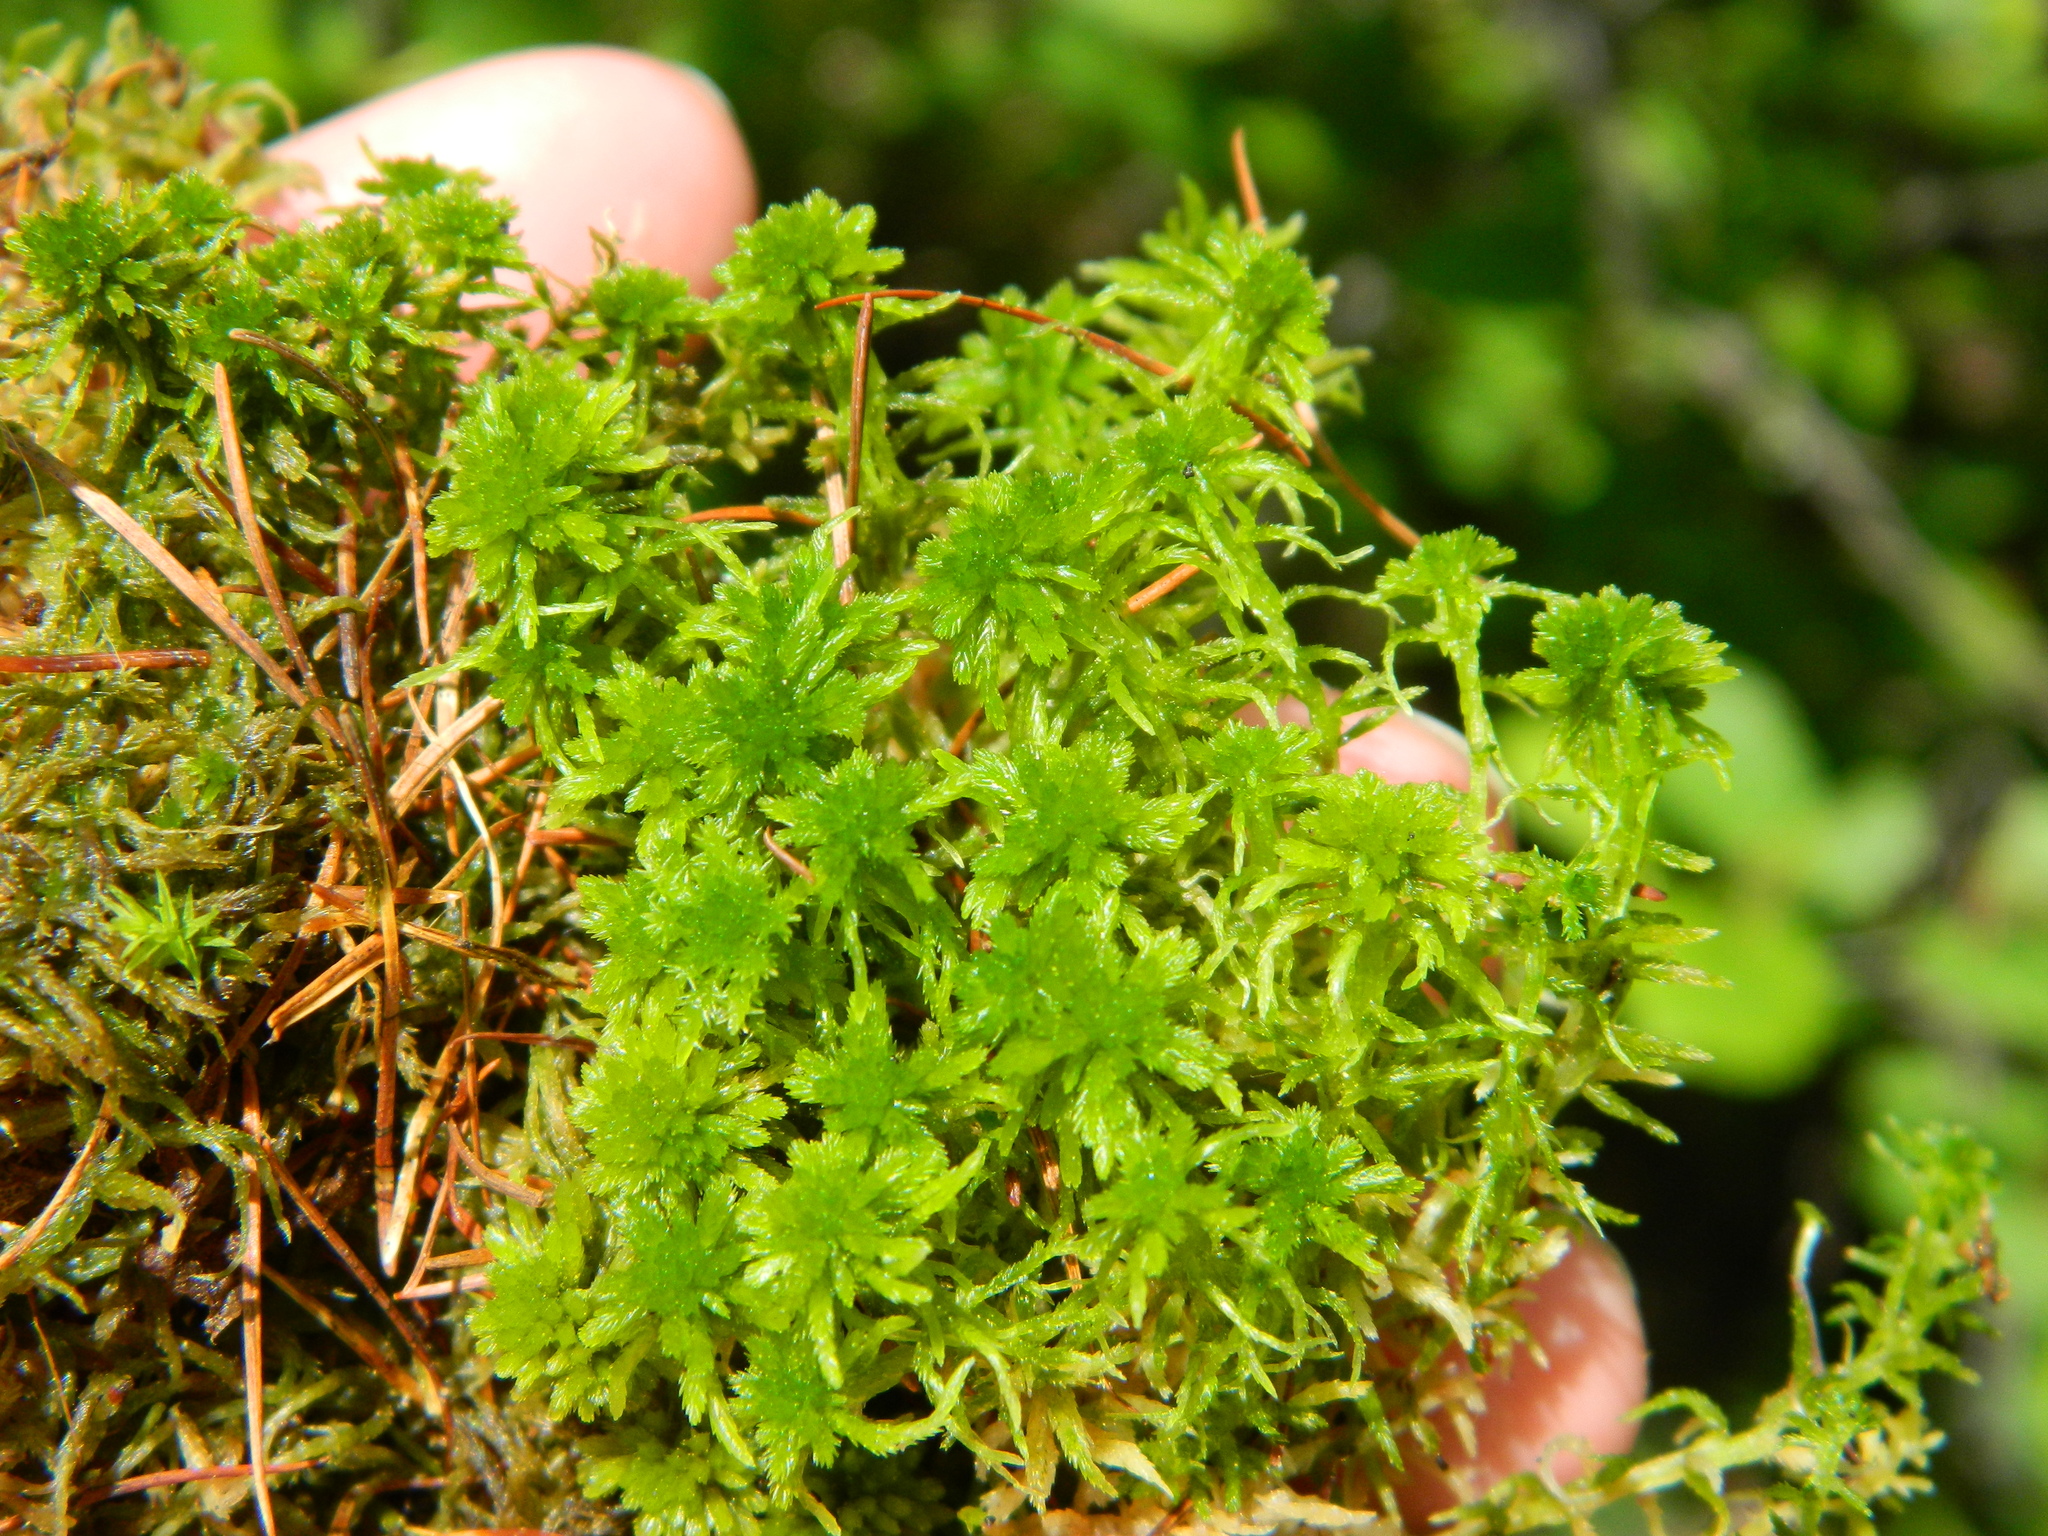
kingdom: Plantae
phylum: Bryophyta
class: Sphagnopsida
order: Sphagnales
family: Sphagnaceae
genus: Sphagnum
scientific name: Sphagnum angustifolium
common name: Narrow-leaved peat moss
